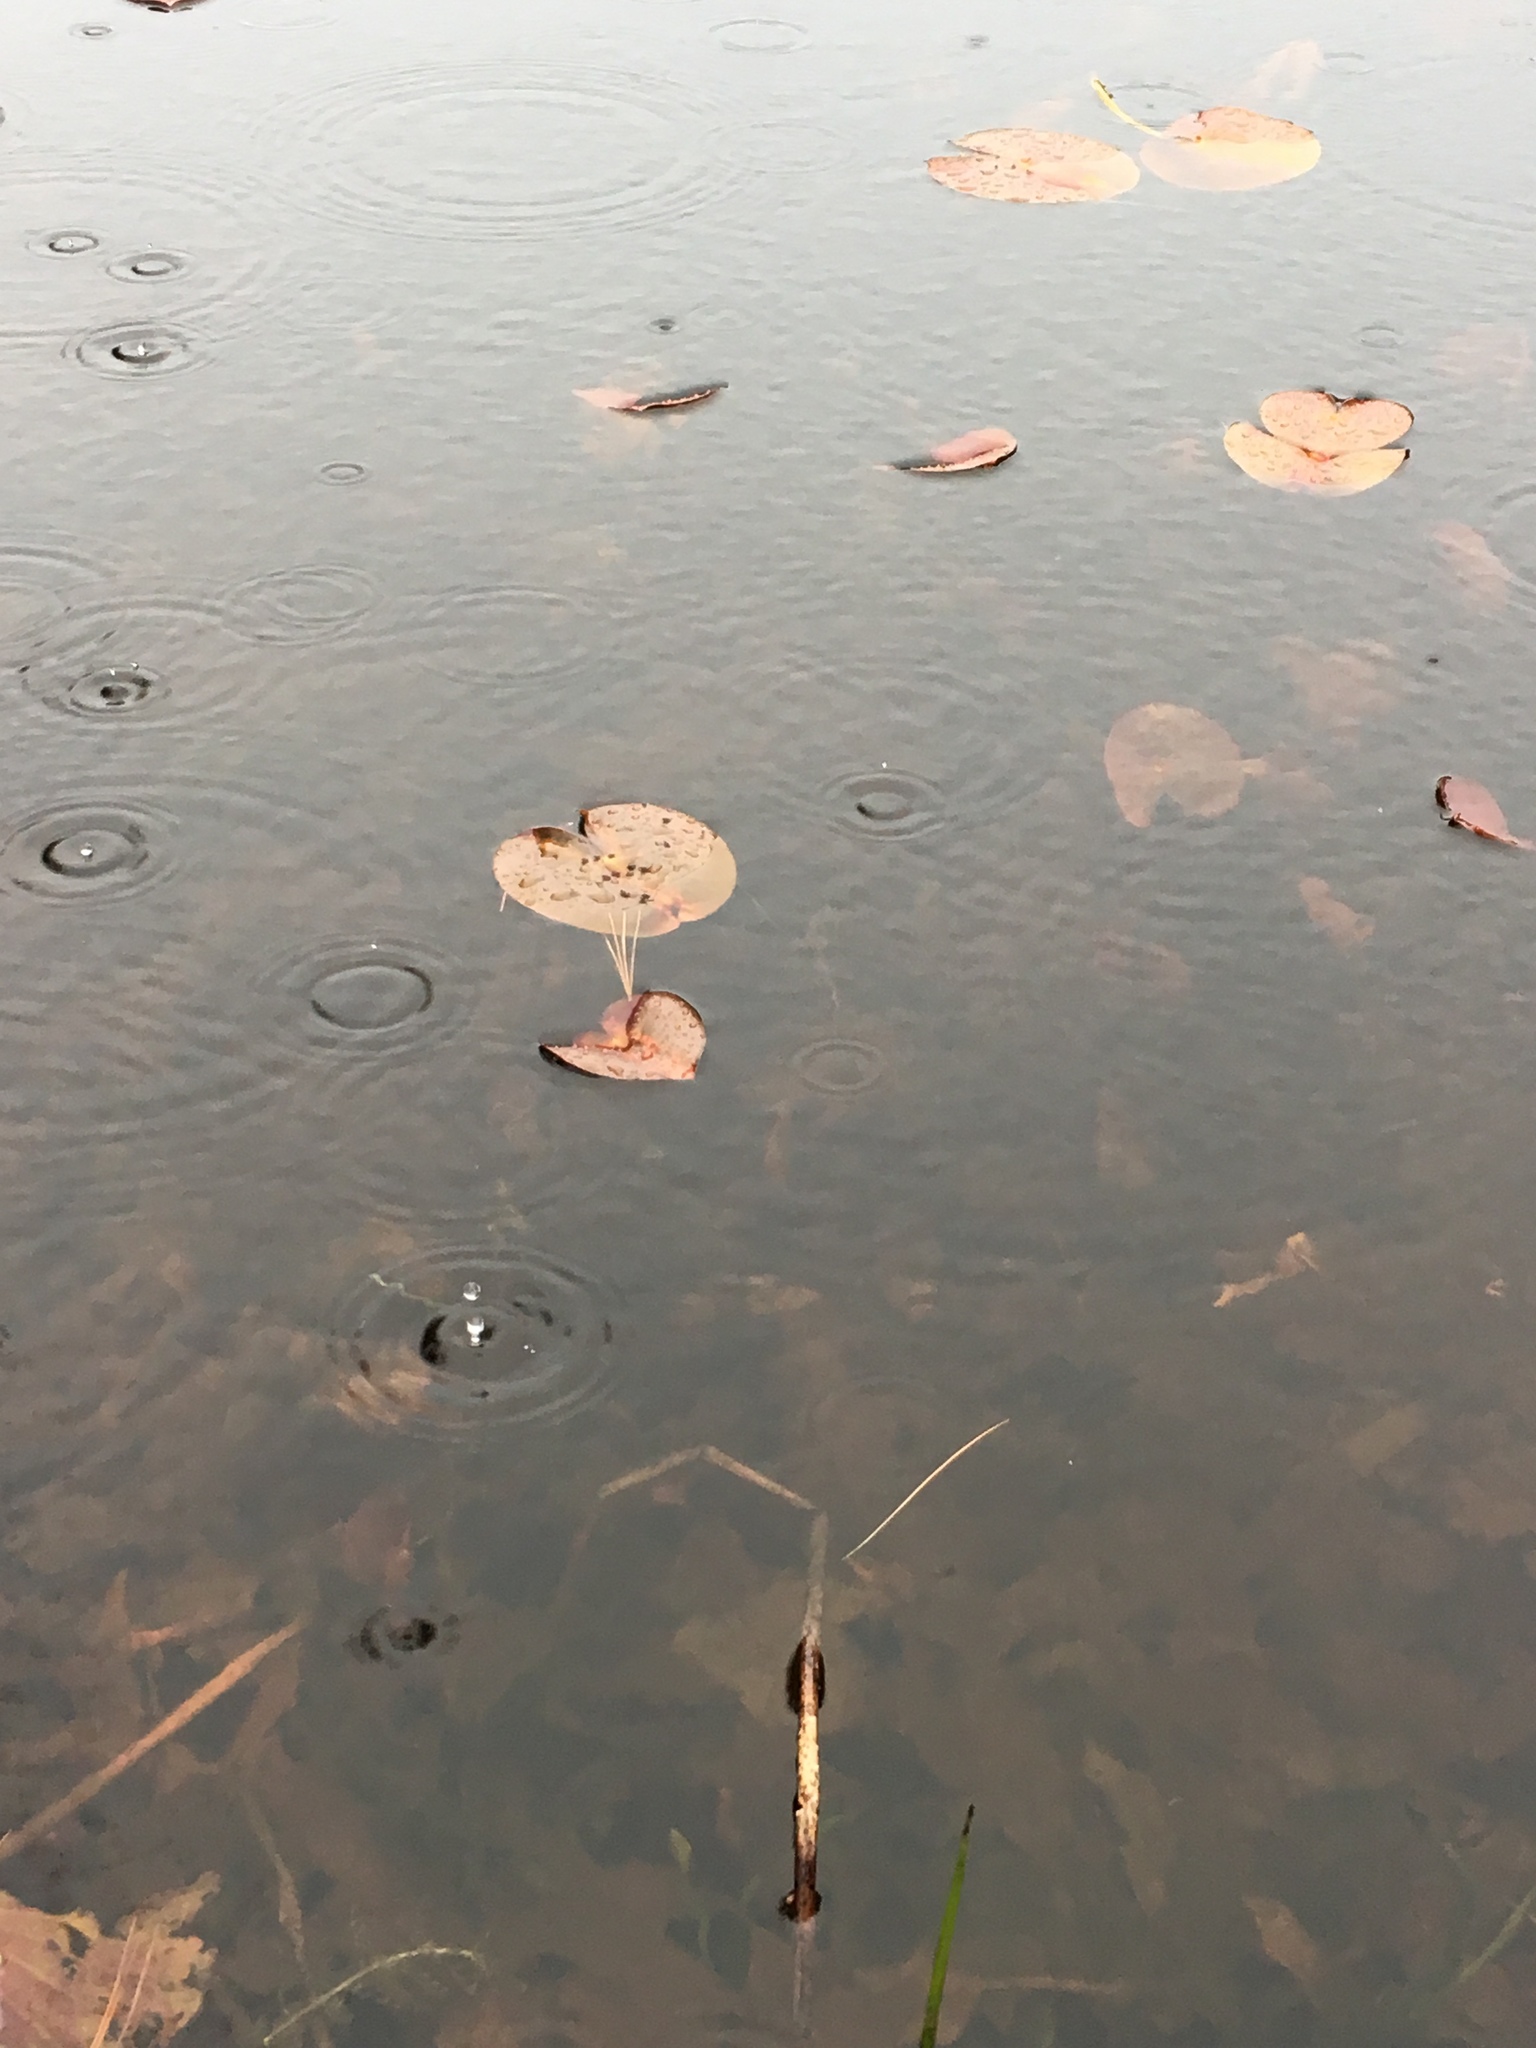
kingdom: Plantae
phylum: Tracheophyta
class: Magnoliopsida
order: Nymphaeales
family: Nymphaeaceae
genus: Nymphaea
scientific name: Nymphaea odorata
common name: Fragrant water-lily
